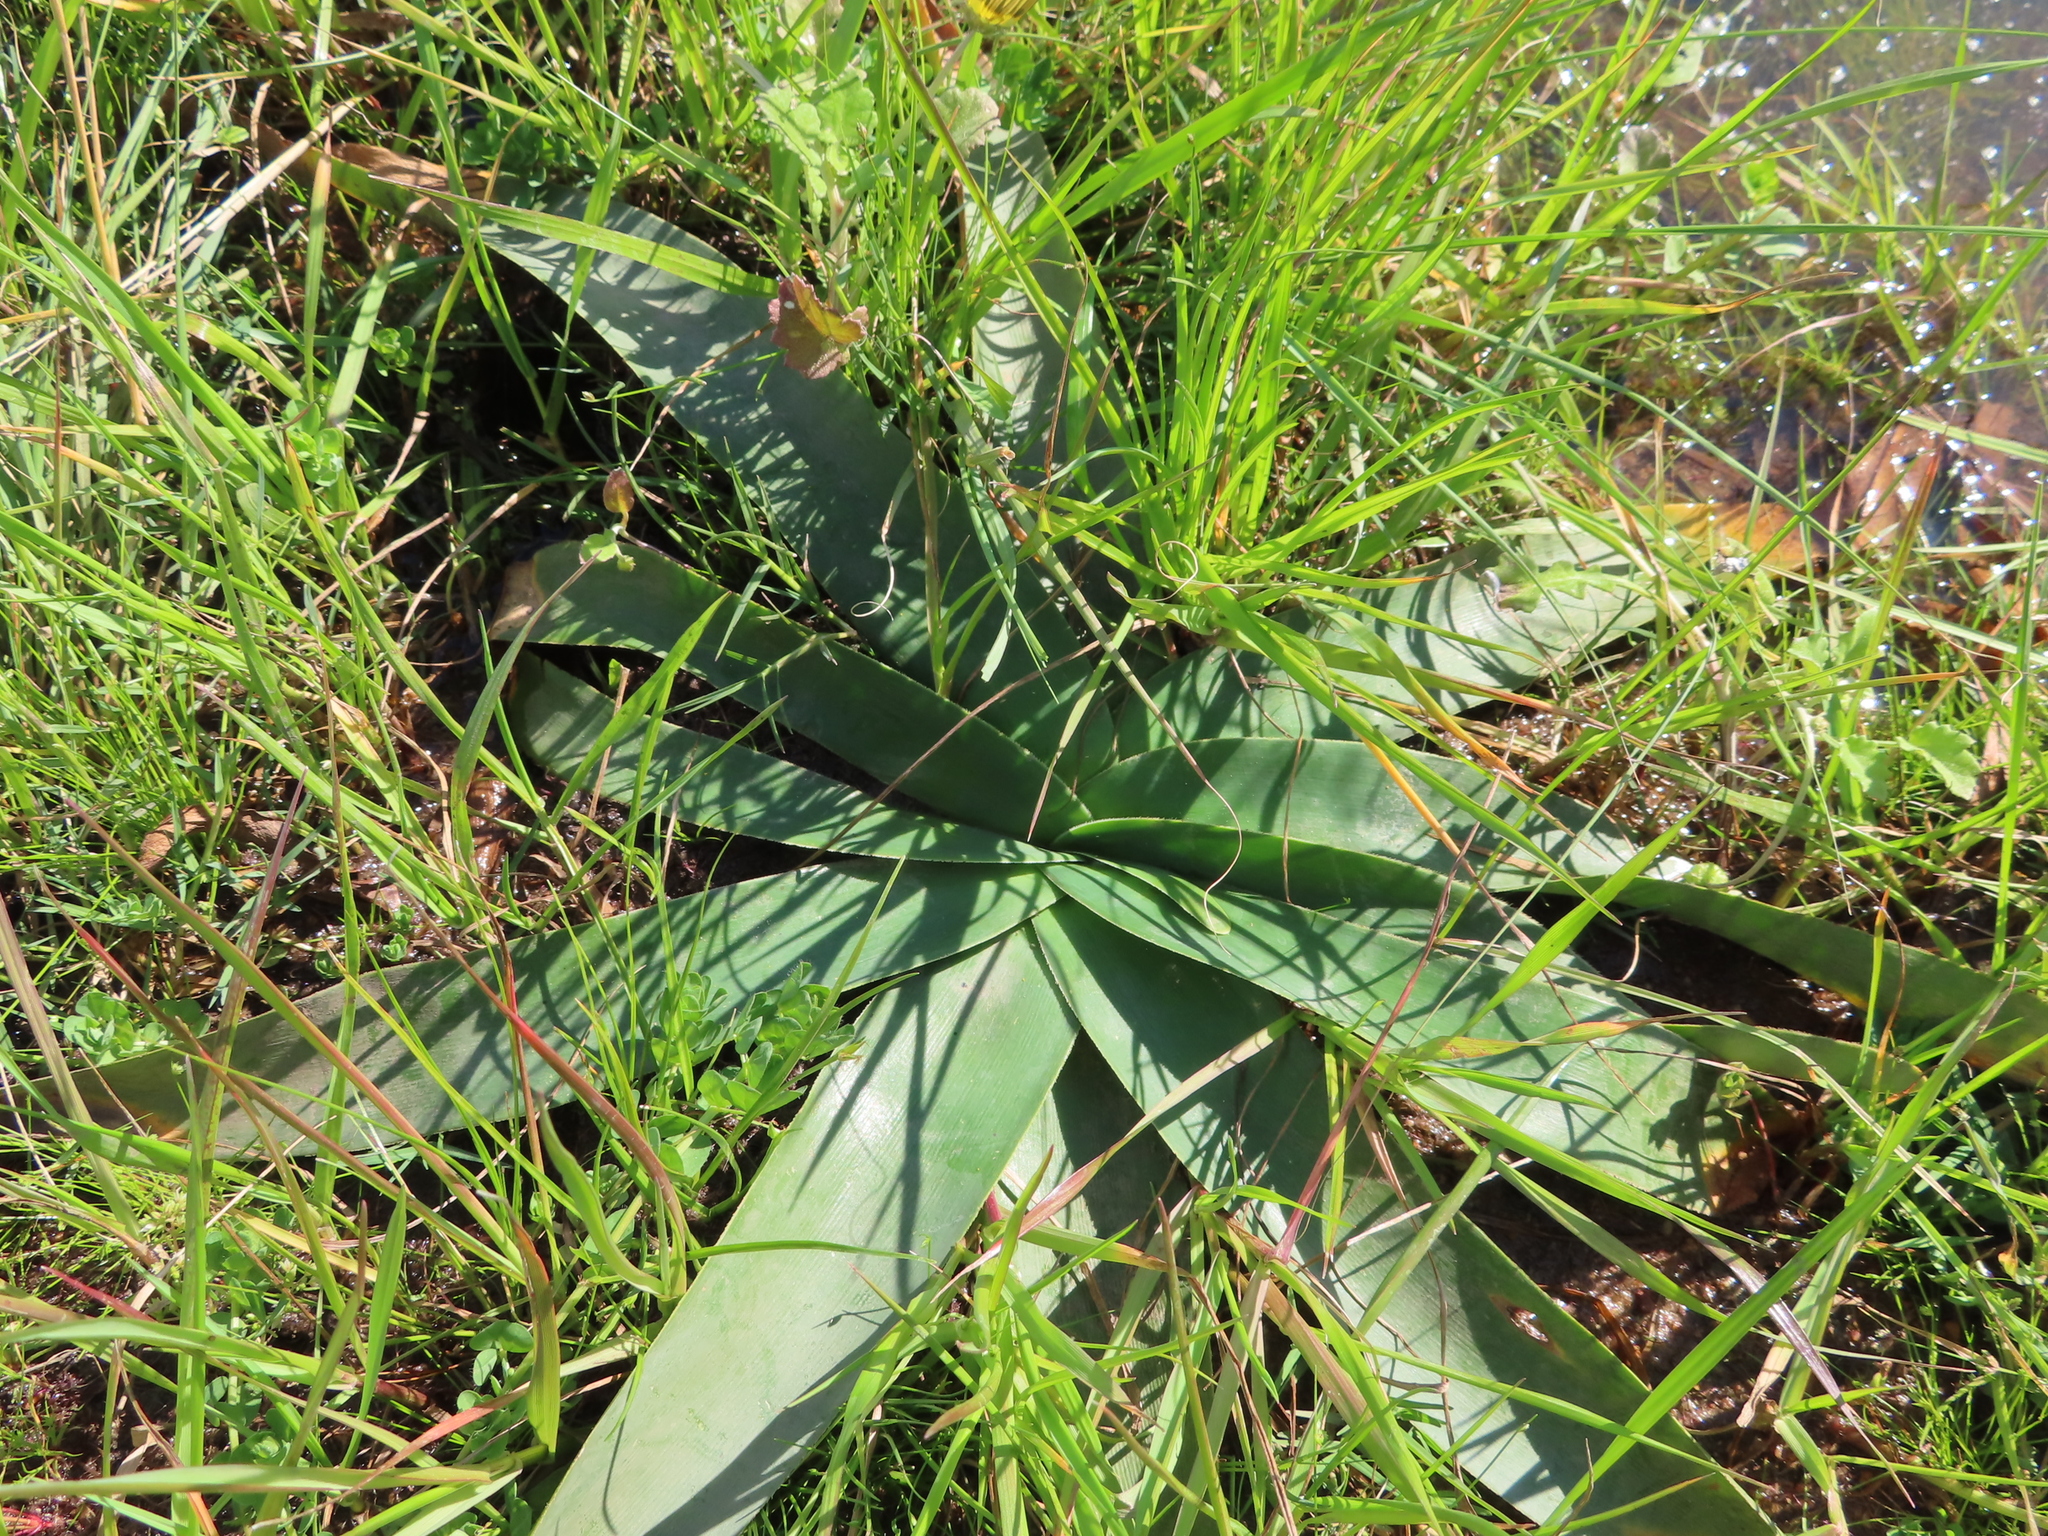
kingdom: Plantae
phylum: Tracheophyta
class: Liliopsida
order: Asparagales
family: Amaryllidaceae
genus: Ammocharis
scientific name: Ammocharis longifolia
